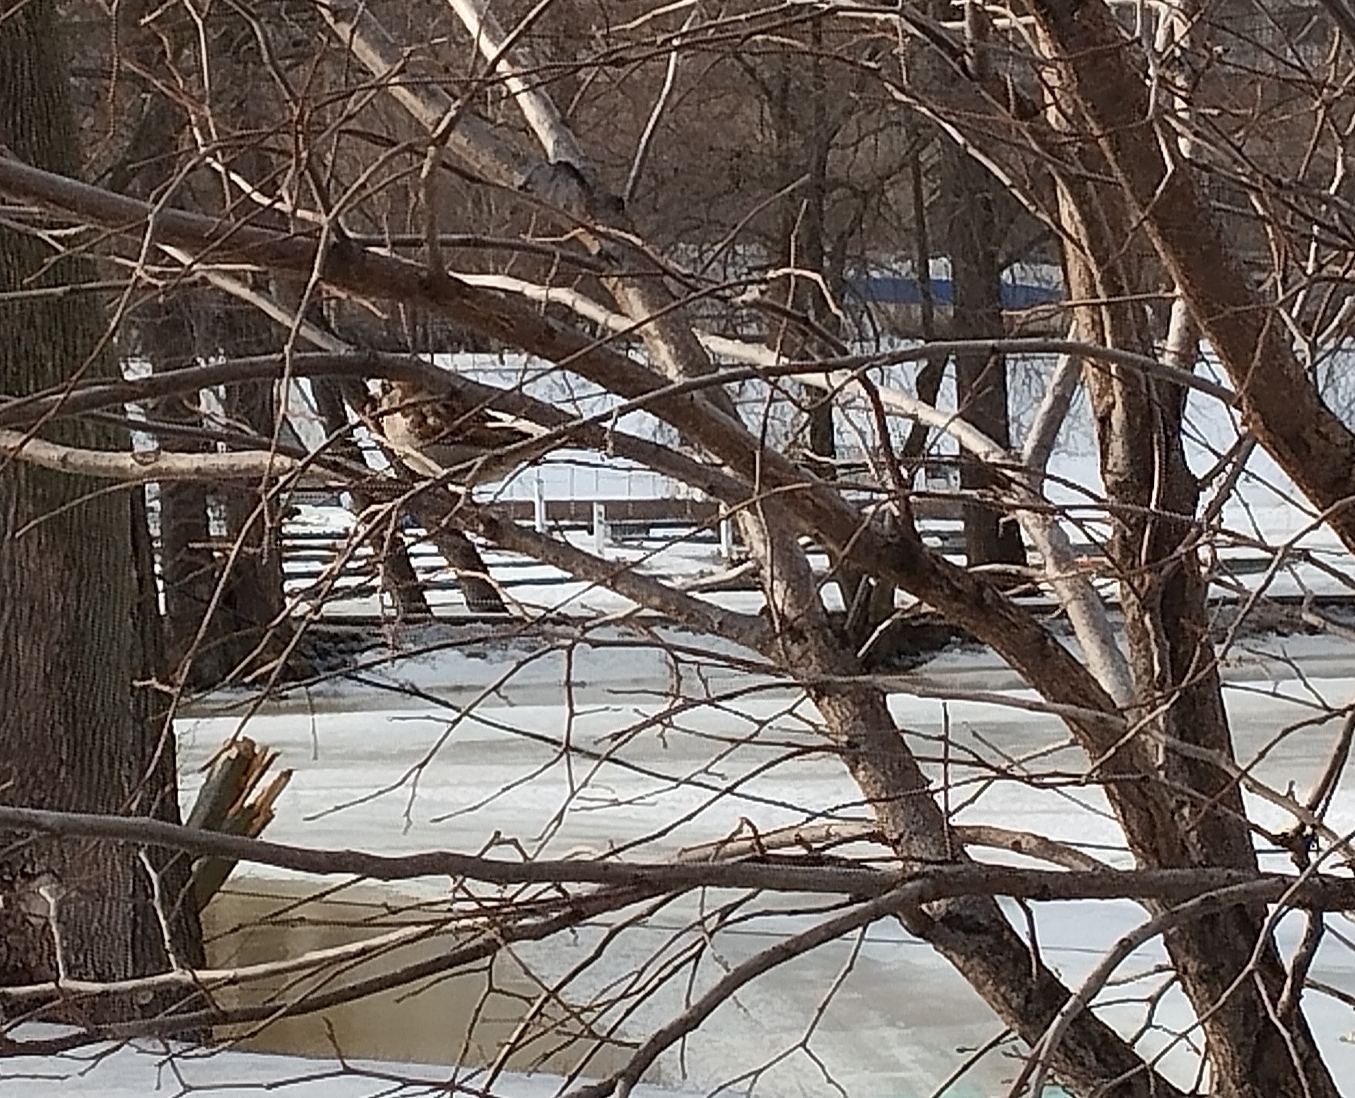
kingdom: Animalia
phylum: Chordata
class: Aves
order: Passeriformes
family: Passeridae
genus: Passer
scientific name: Passer domesticus
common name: House sparrow
